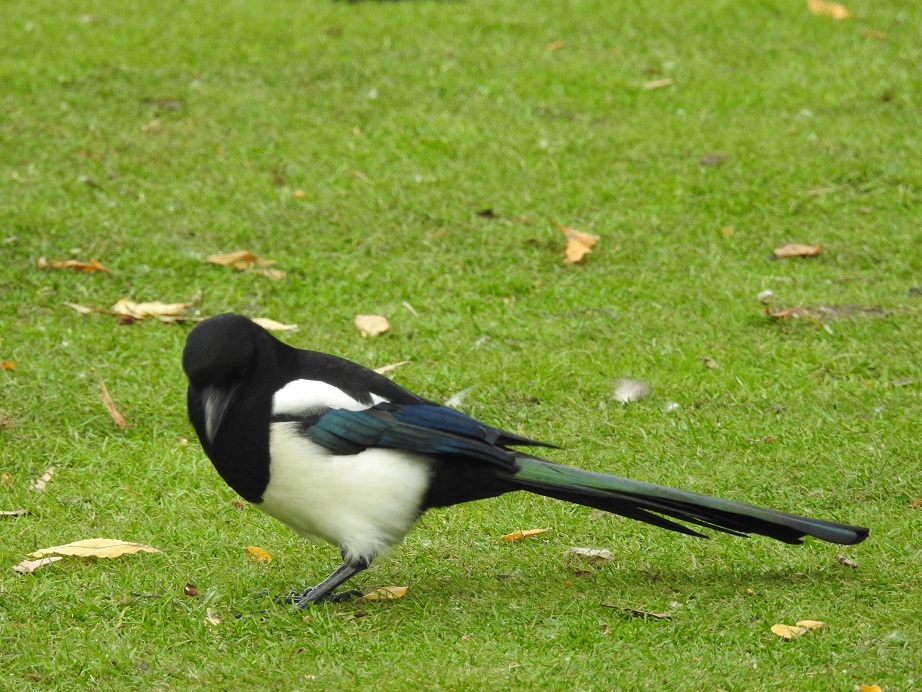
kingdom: Animalia
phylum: Chordata
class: Aves
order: Passeriformes
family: Corvidae
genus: Pica
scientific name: Pica pica
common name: Eurasian magpie
